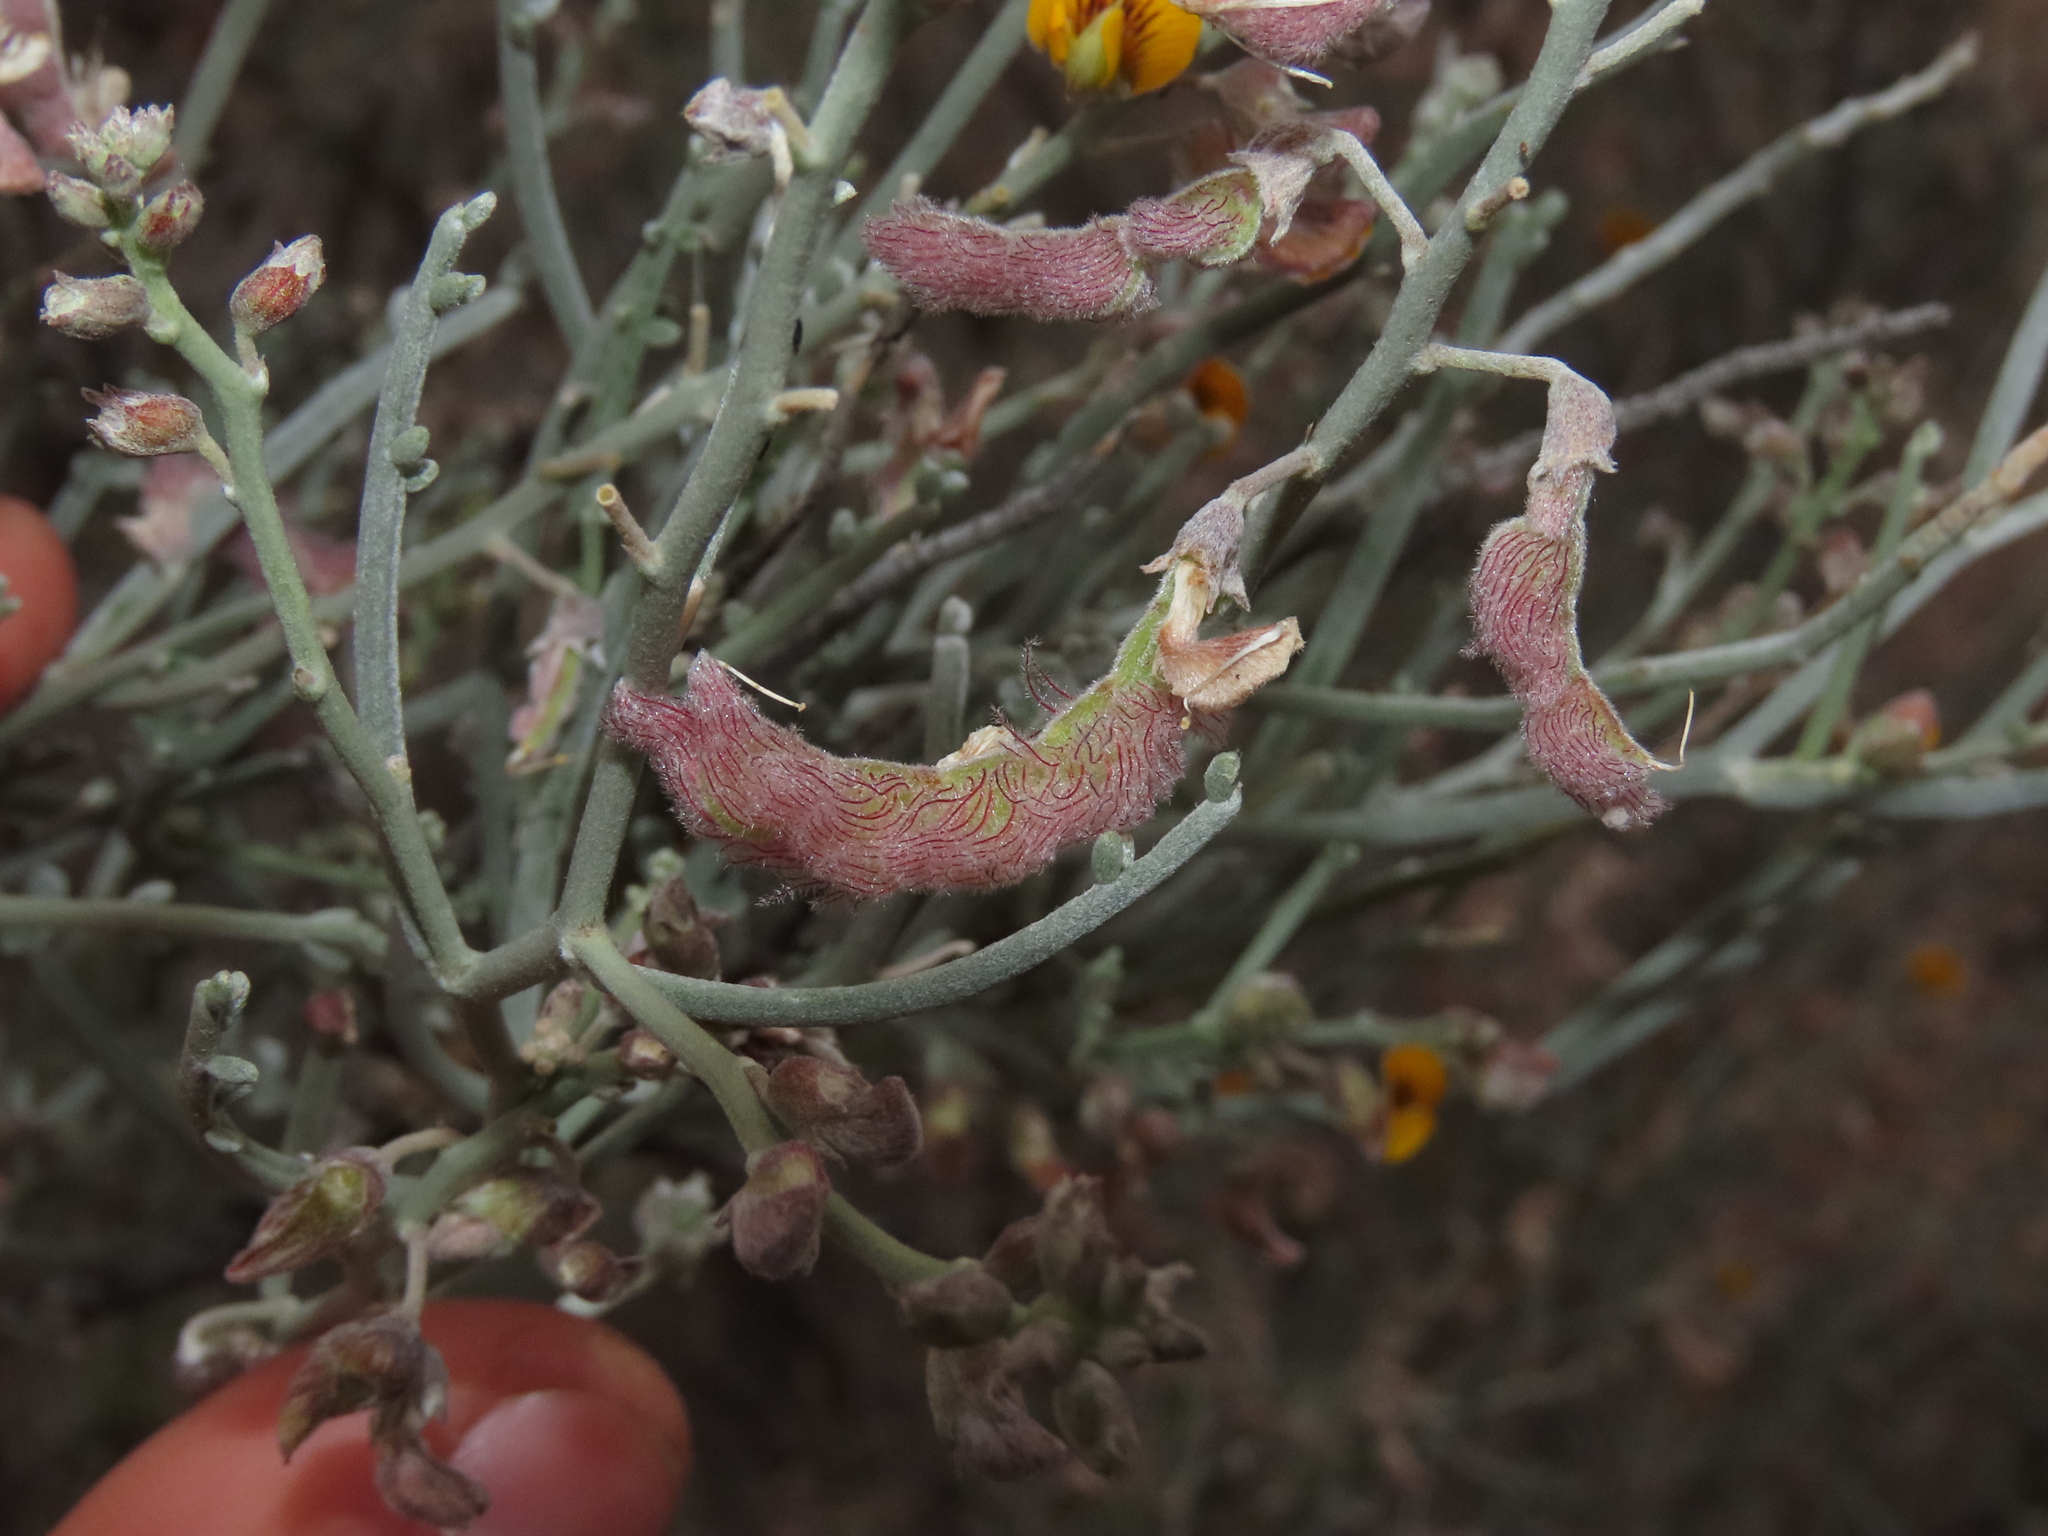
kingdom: Plantae
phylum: Tracheophyta
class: Magnoliopsida
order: Fabales
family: Fabaceae
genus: Adesmia
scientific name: Adesmia argentea
